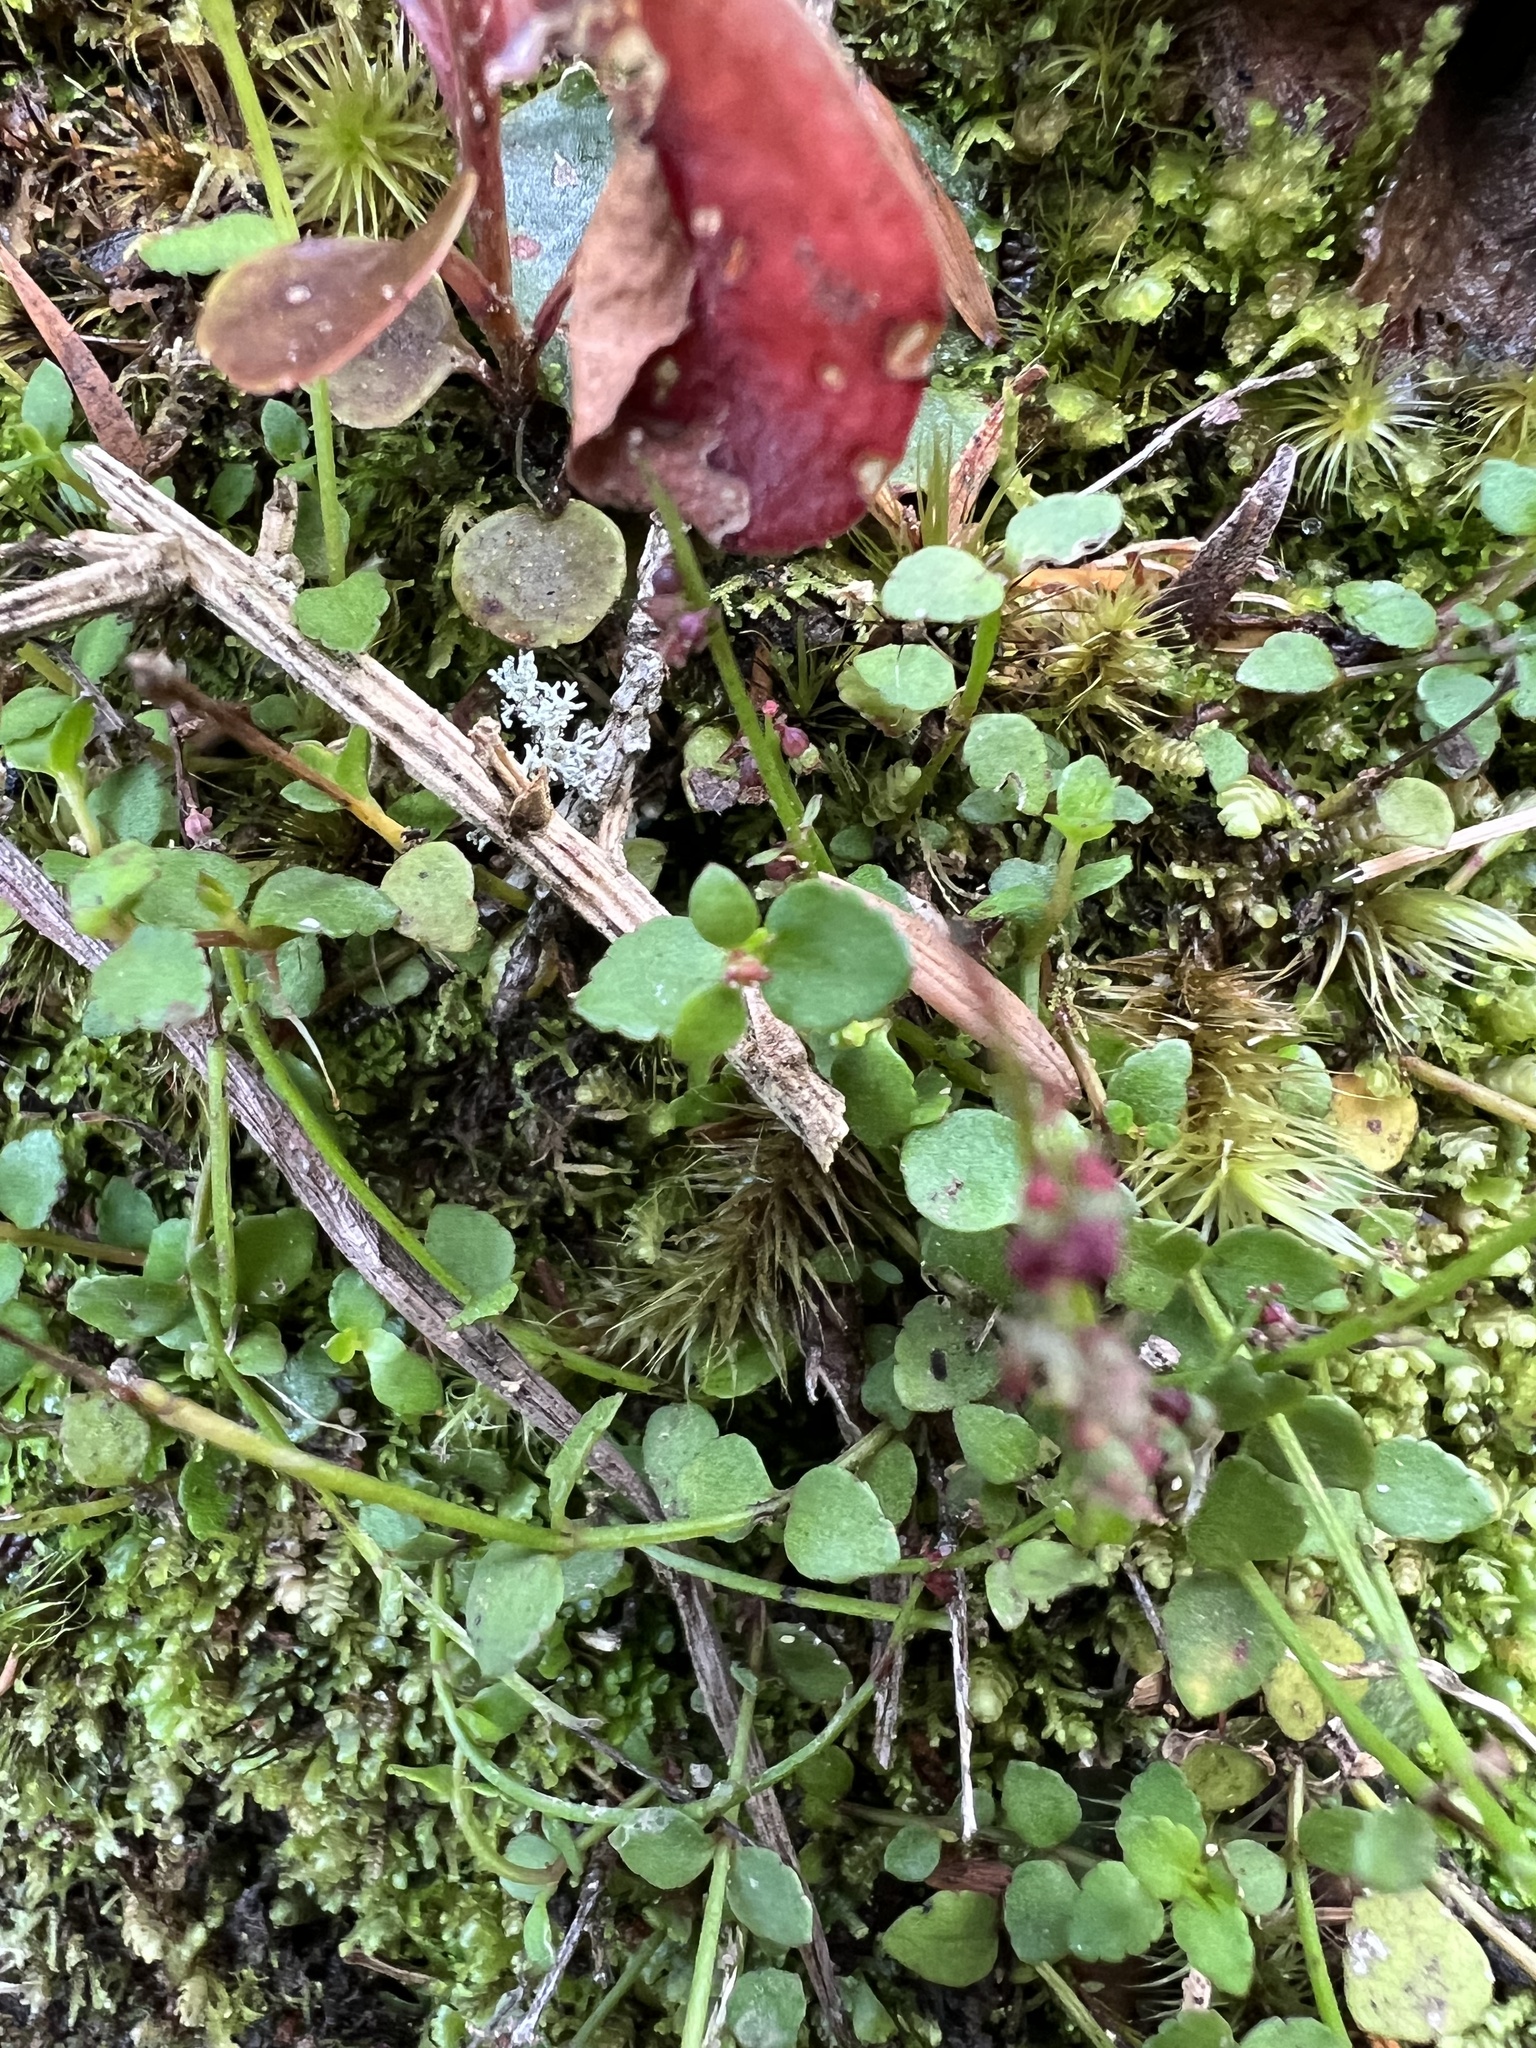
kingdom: Plantae
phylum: Tracheophyta
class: Magnoliopsida
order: Saxifragales
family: Haloragaceae
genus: Gonocarpus
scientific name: Gonocarpus micranthus
